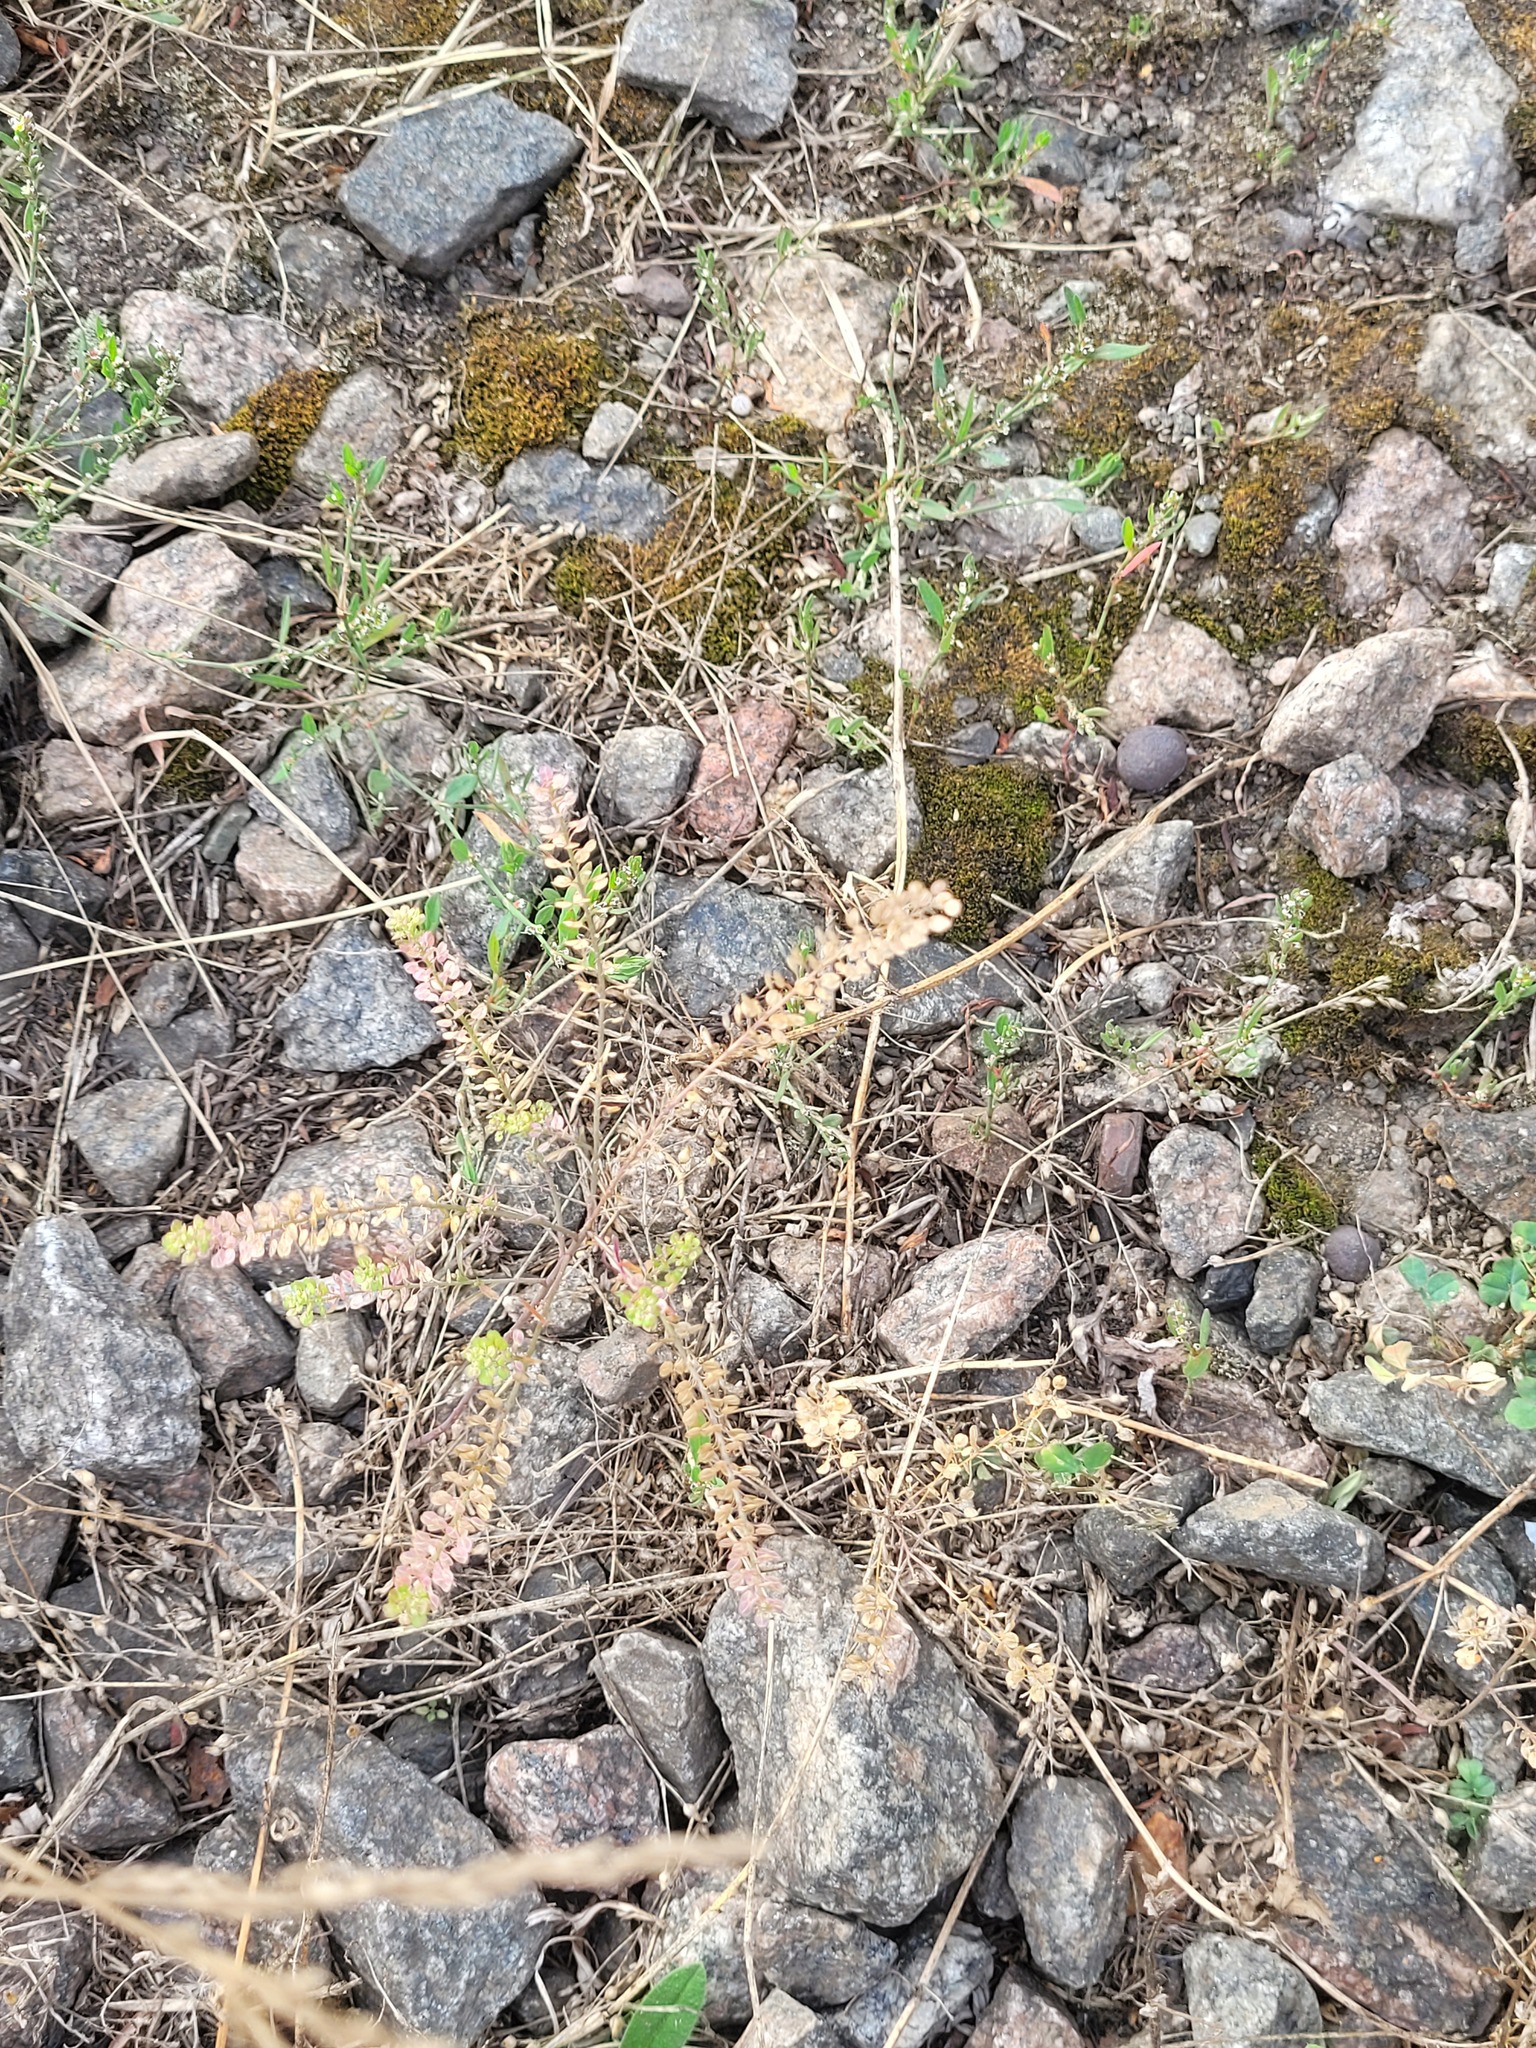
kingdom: Plantae
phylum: Tracheophyta
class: Magnoliopsida
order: Brassicales
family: Brassicaceae
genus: Lepidium
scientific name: Lepidium densiflorum
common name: Miner's pepperwort
